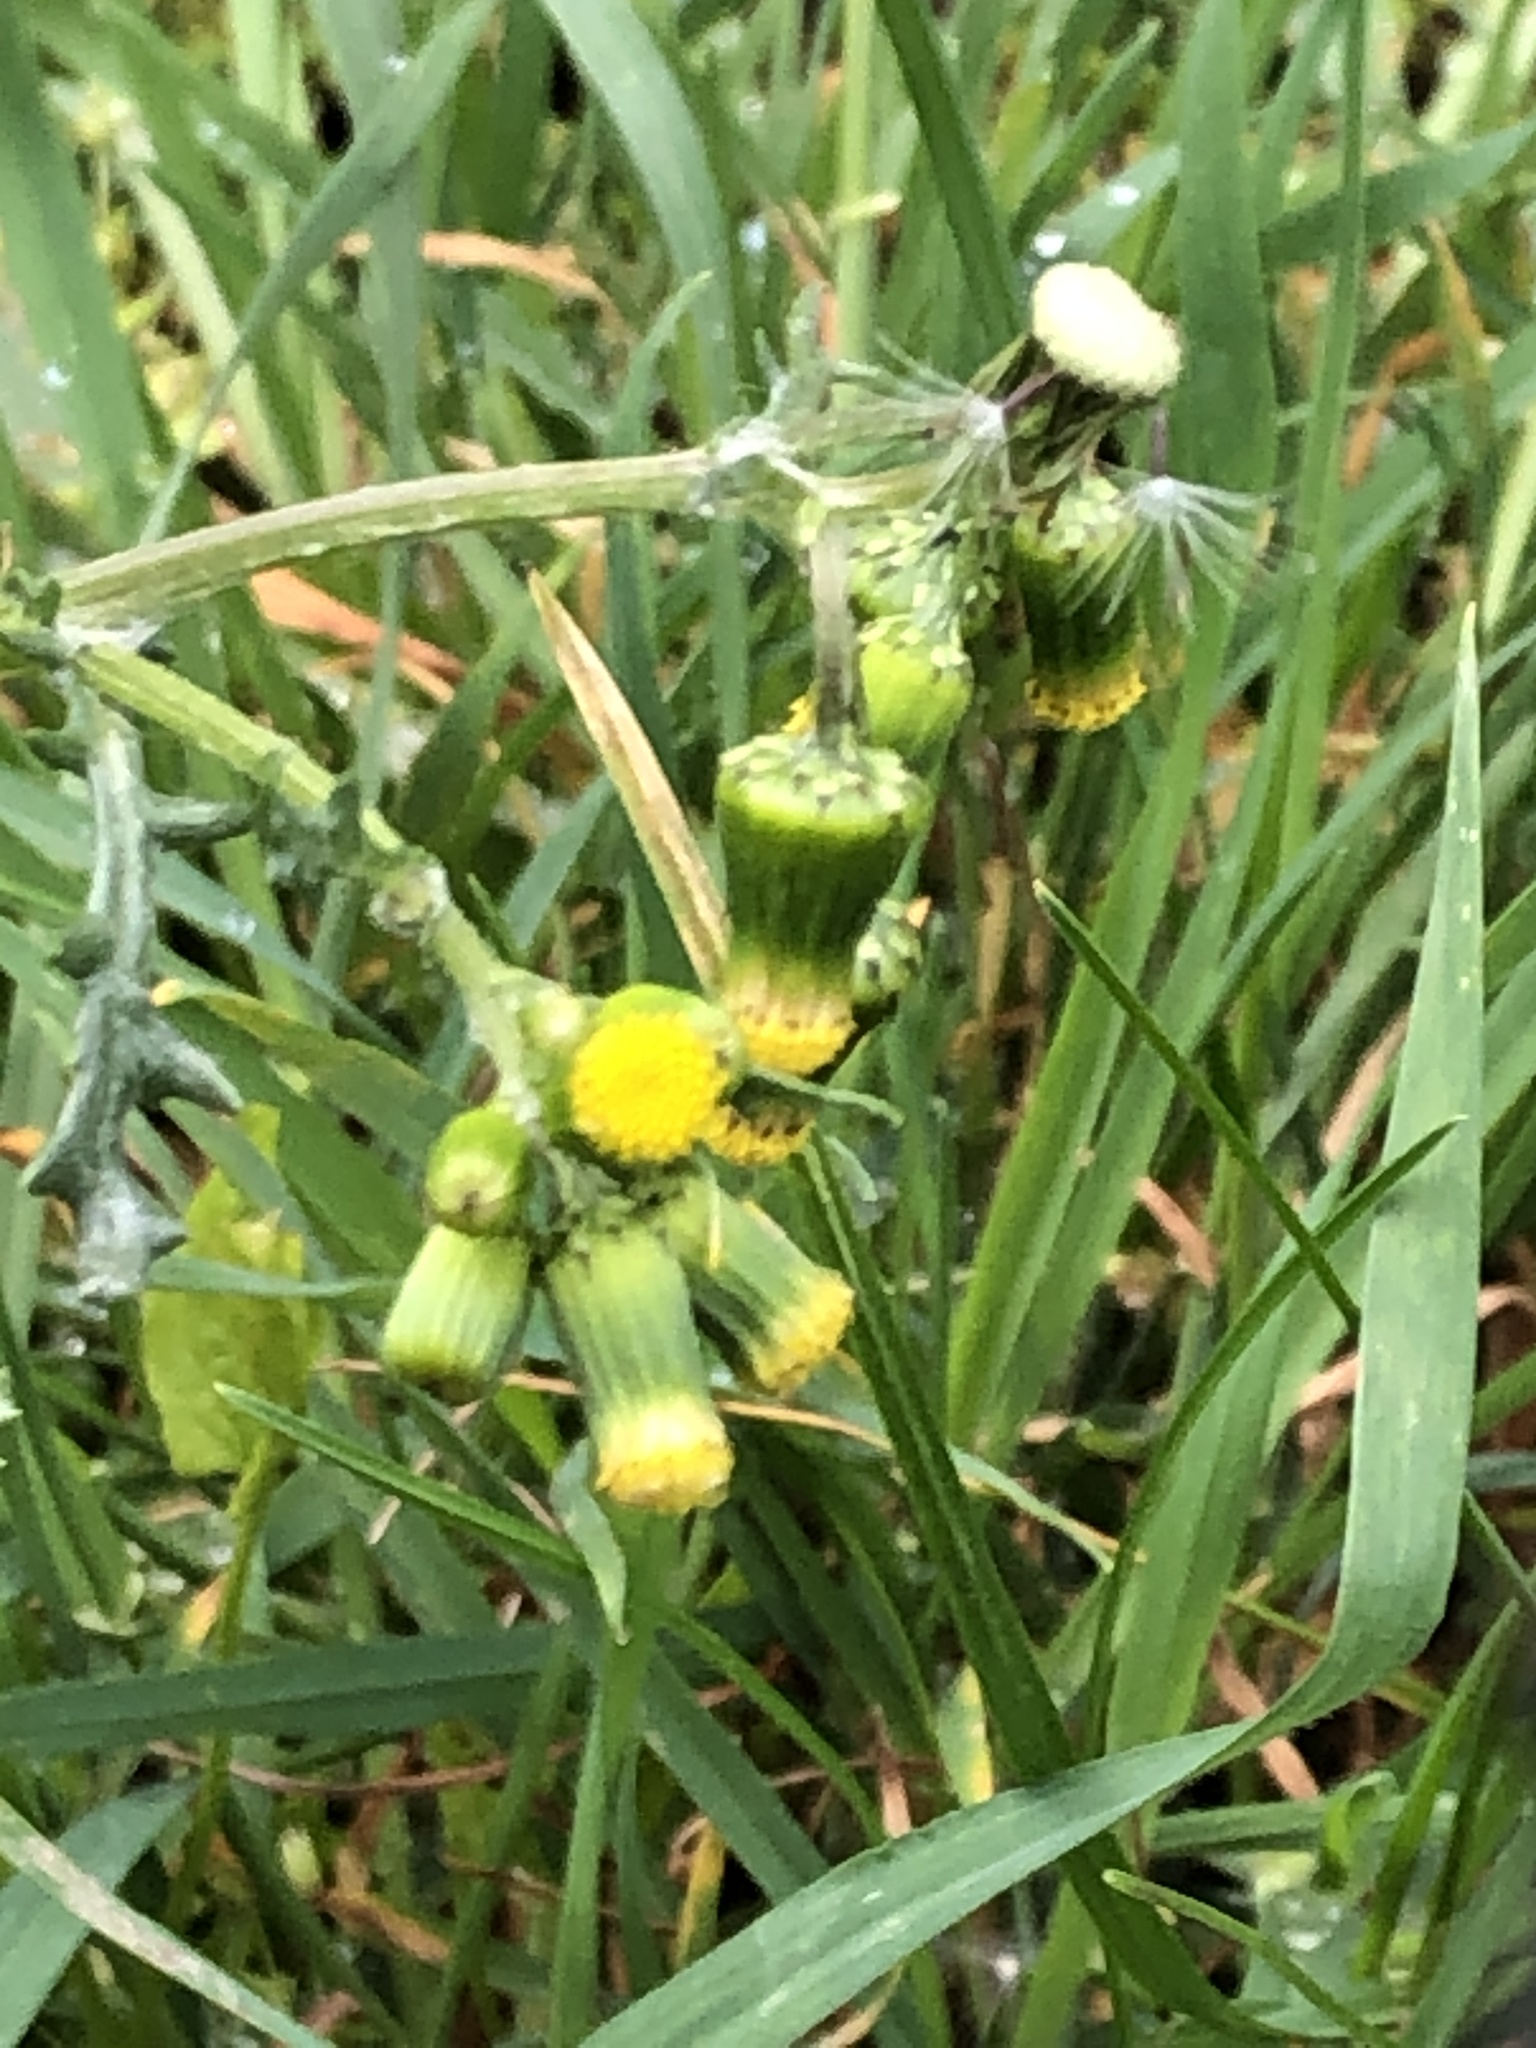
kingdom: Plantae
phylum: Tracheophyta
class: Magnoliopsida
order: Asterales
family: Asteraceae
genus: Senecio
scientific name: Senecio vulgaris
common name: Old-man-in-the-spring
